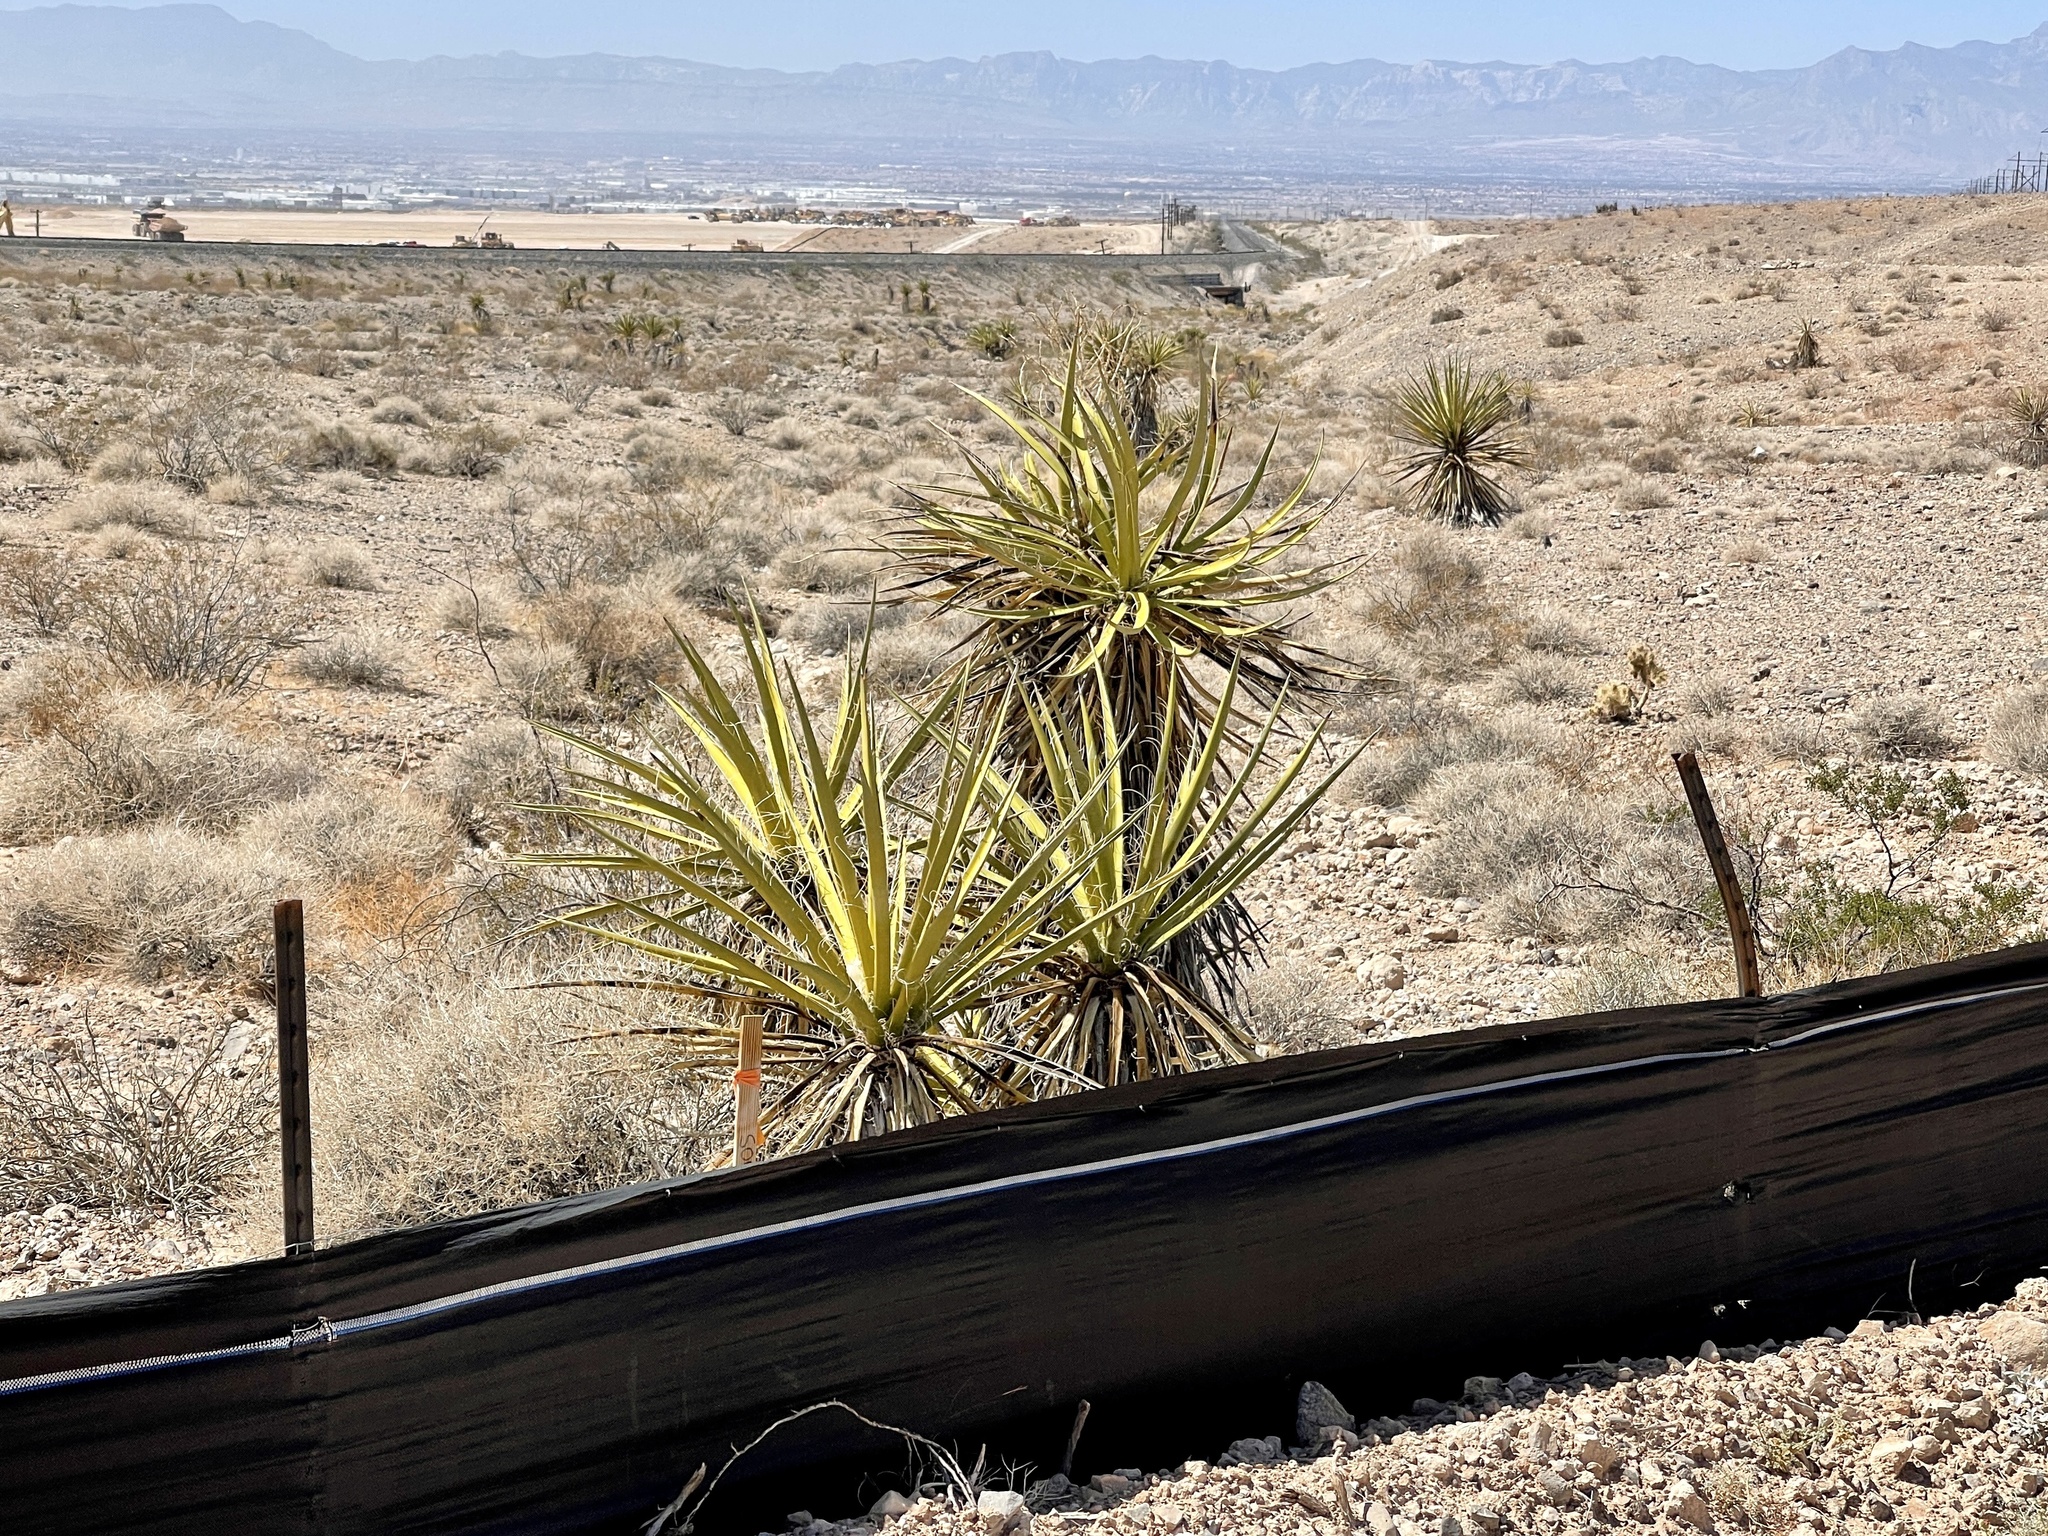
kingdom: Plantae
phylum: Tracheophyta
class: Liliopsida
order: Asparagales
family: Asparagaceae
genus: Yucca
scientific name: Yucca schidigera
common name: Mojave yucca
